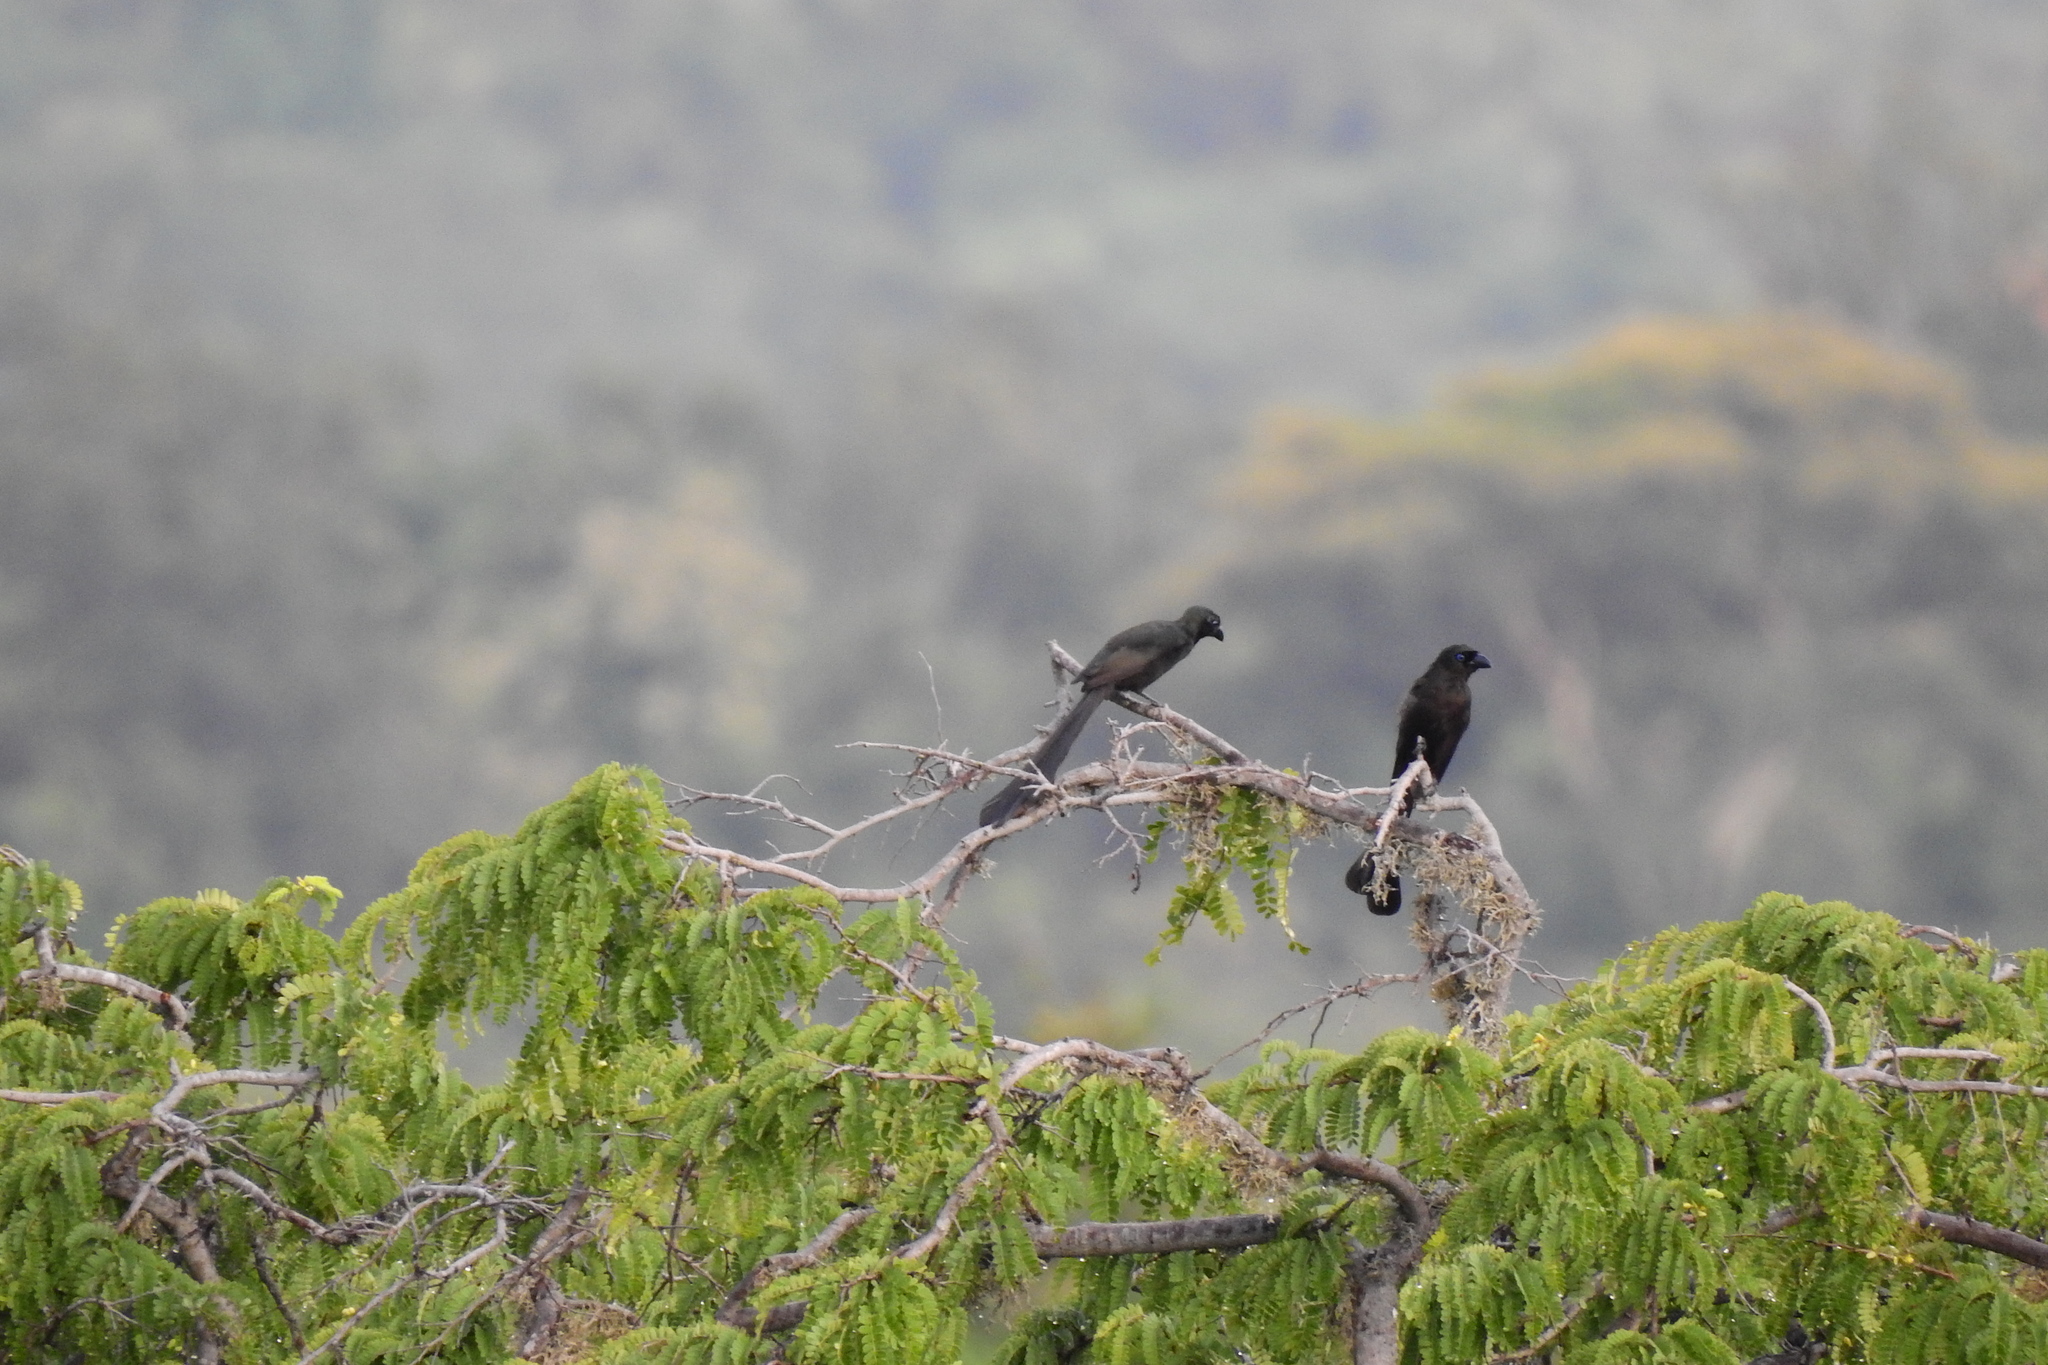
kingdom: Animalia
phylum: Chordata
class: Aves
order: Passeriformes
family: Corvidae
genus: Crypsirina
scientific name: Crypsirina temia
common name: Racket-tailed treepie
